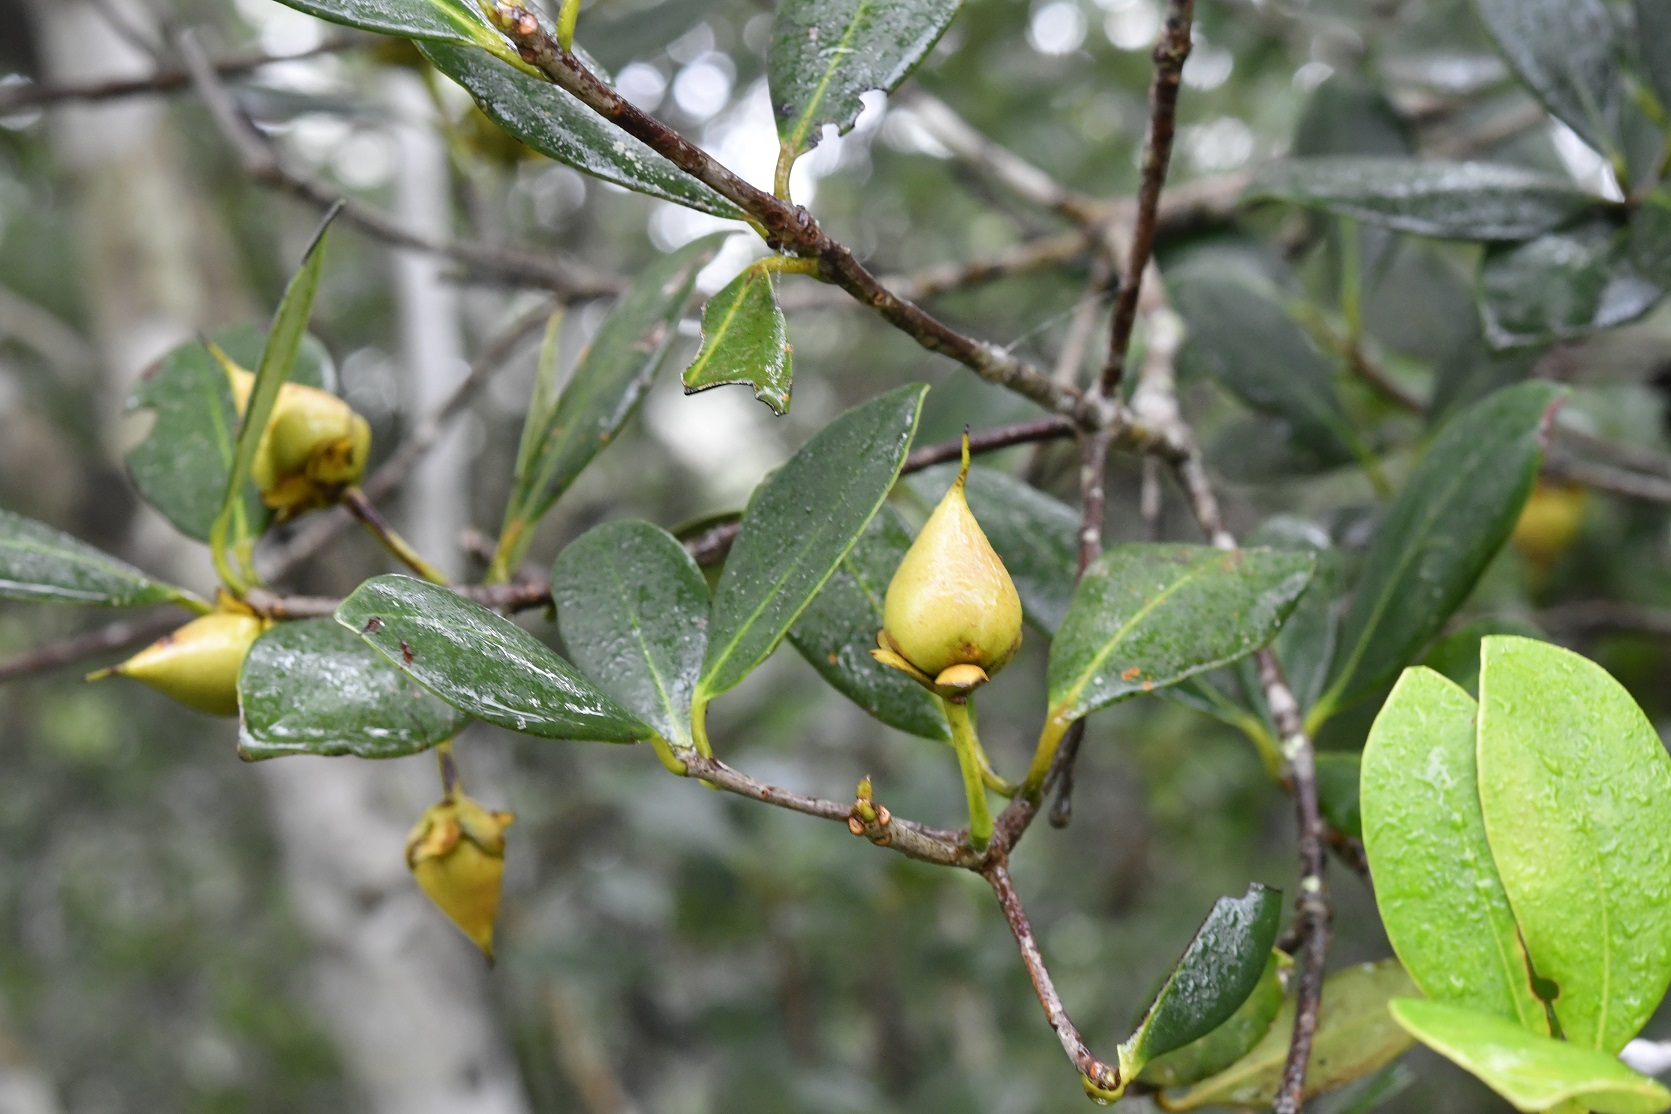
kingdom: Plantae
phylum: Tracheophyta
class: Magnoliopsida
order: Ericales
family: Pentaphylacaceae
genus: Ternstroemia
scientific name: Ternstroemia tepezapote
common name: Copey vera
